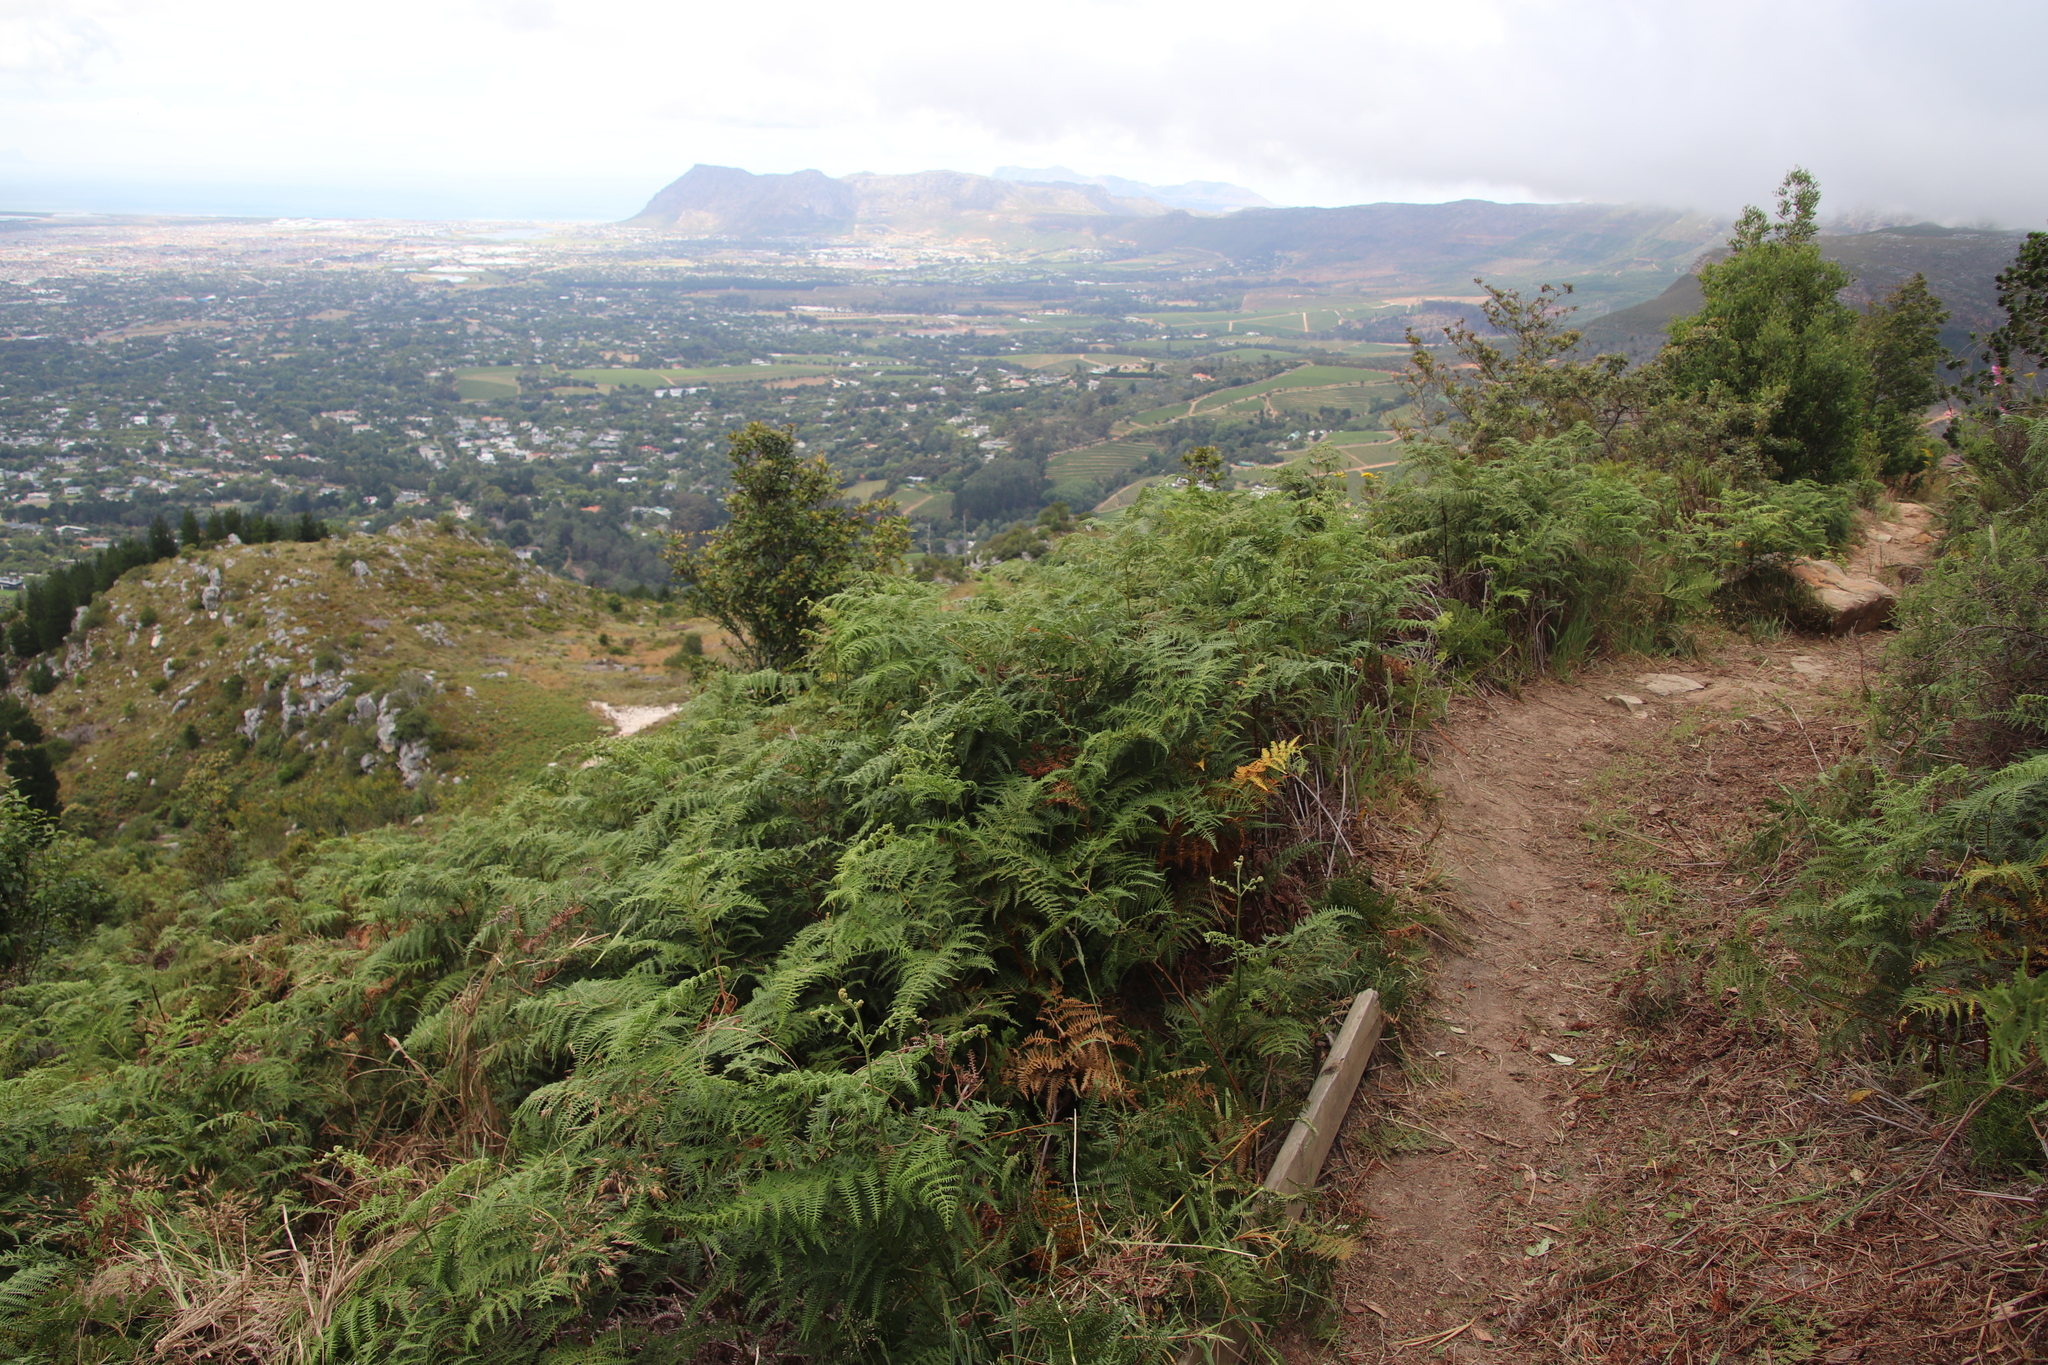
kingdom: Plantae
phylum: Tracheophyta
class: Polypodiopsida
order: Polypodiales
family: Dennstaedtiaceae
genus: Pteridium
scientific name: Pteridium aquilinum
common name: Bracken
